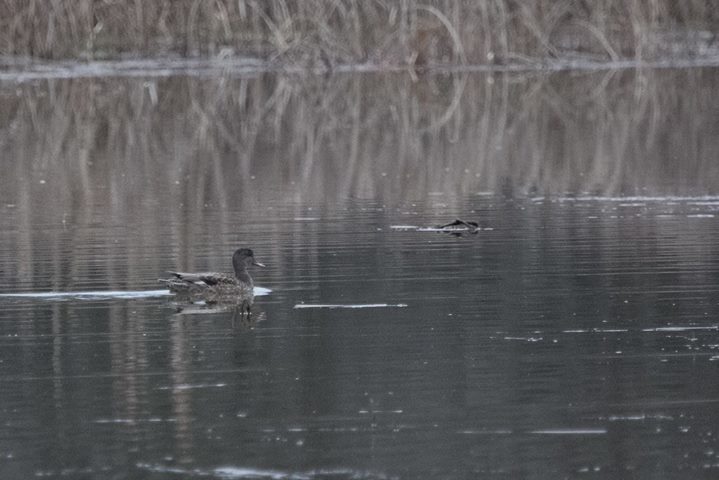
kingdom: Animalia
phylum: Chordata
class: Aves
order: Anseriformes
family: Anatidae
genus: Mareca
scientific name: Mareca strepera
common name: Gadwall
